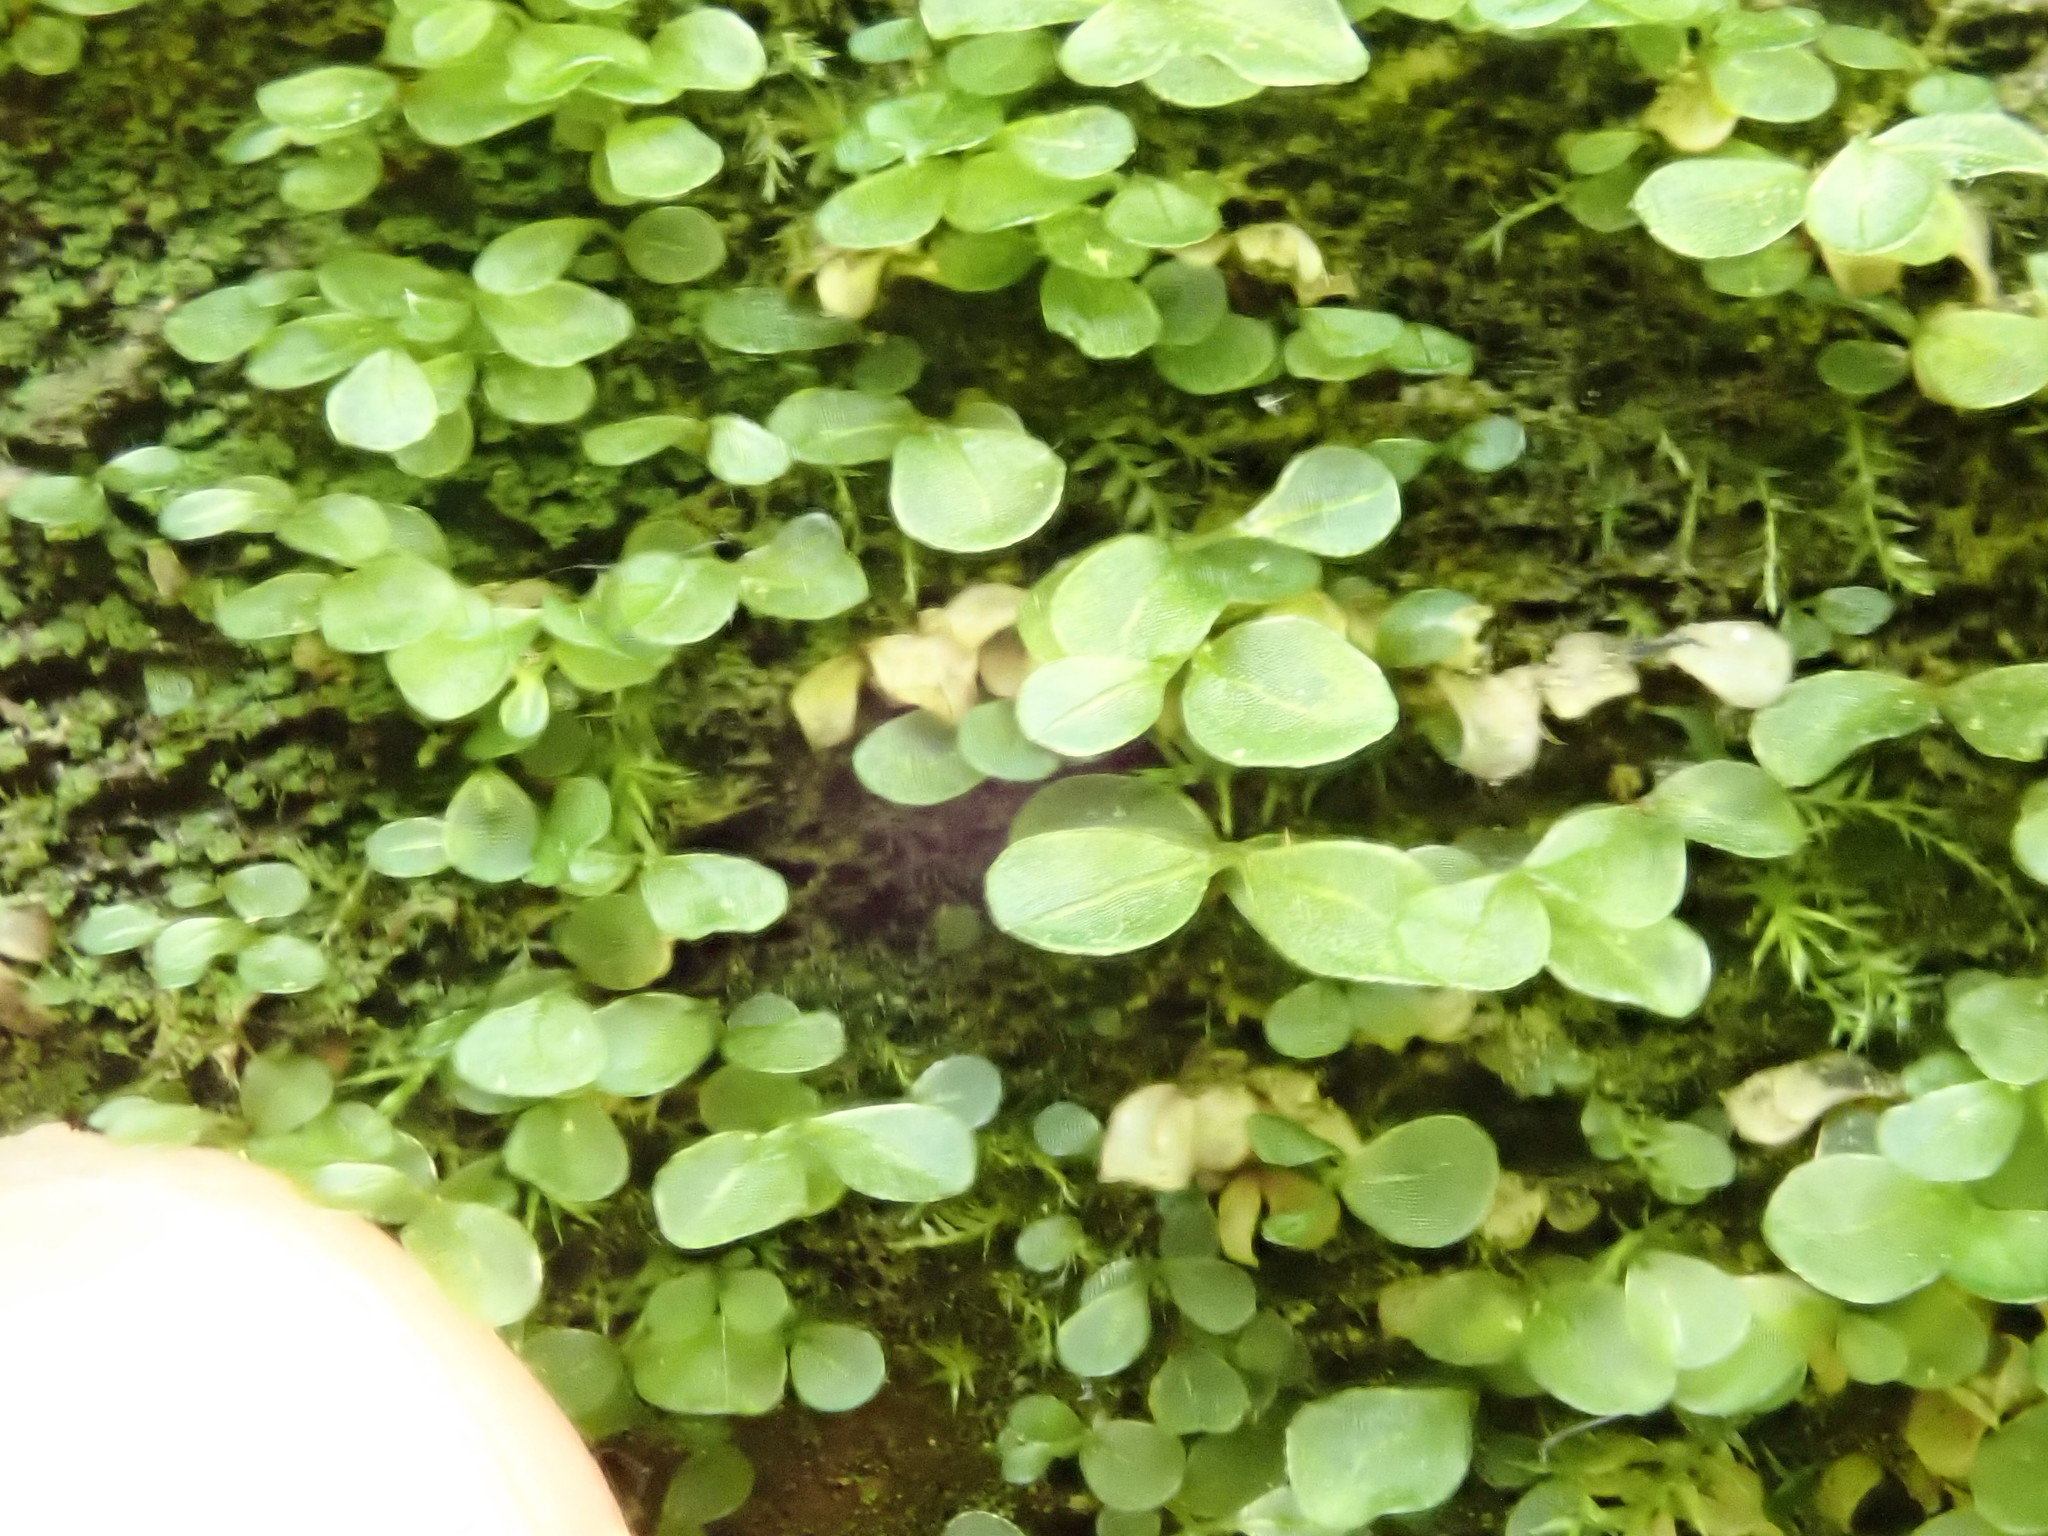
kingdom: Plantae
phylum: Bryophyta
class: Bryopsida
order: Bryales
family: Mniaceae
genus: Rhizomnium
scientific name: Rhizomnium punctatum
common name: Dotted leafy moss
